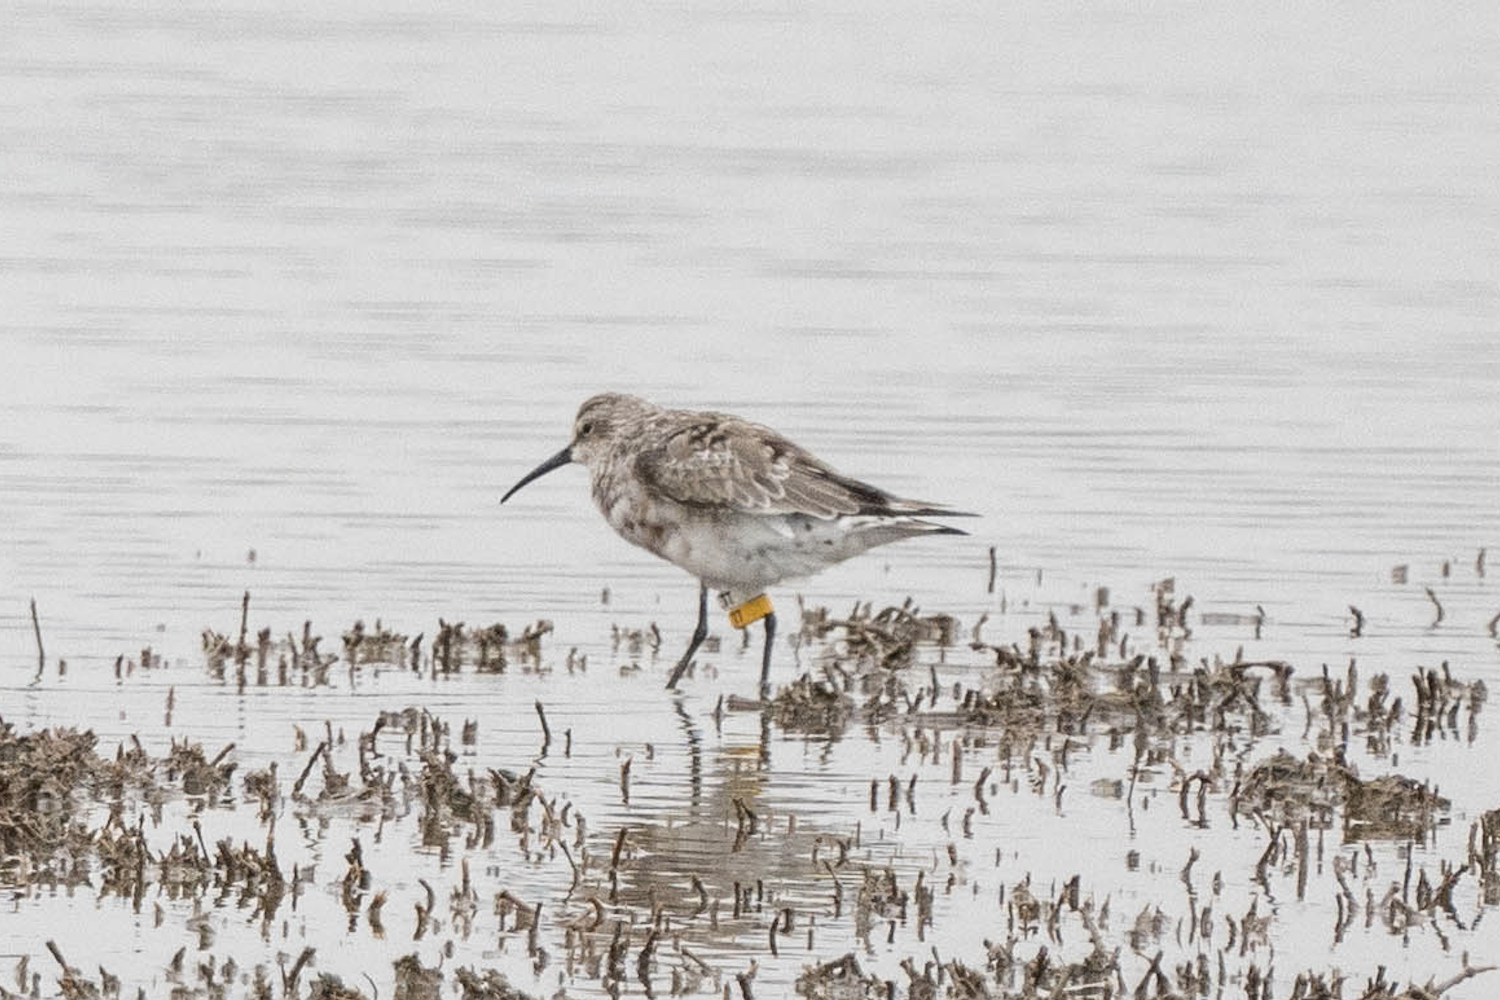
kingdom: Animalia
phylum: Chordata
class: Aves
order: Charadriiformes
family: Scolopacidae
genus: Calidris
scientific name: Calidris ferruginea
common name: Curlew sandpiper
